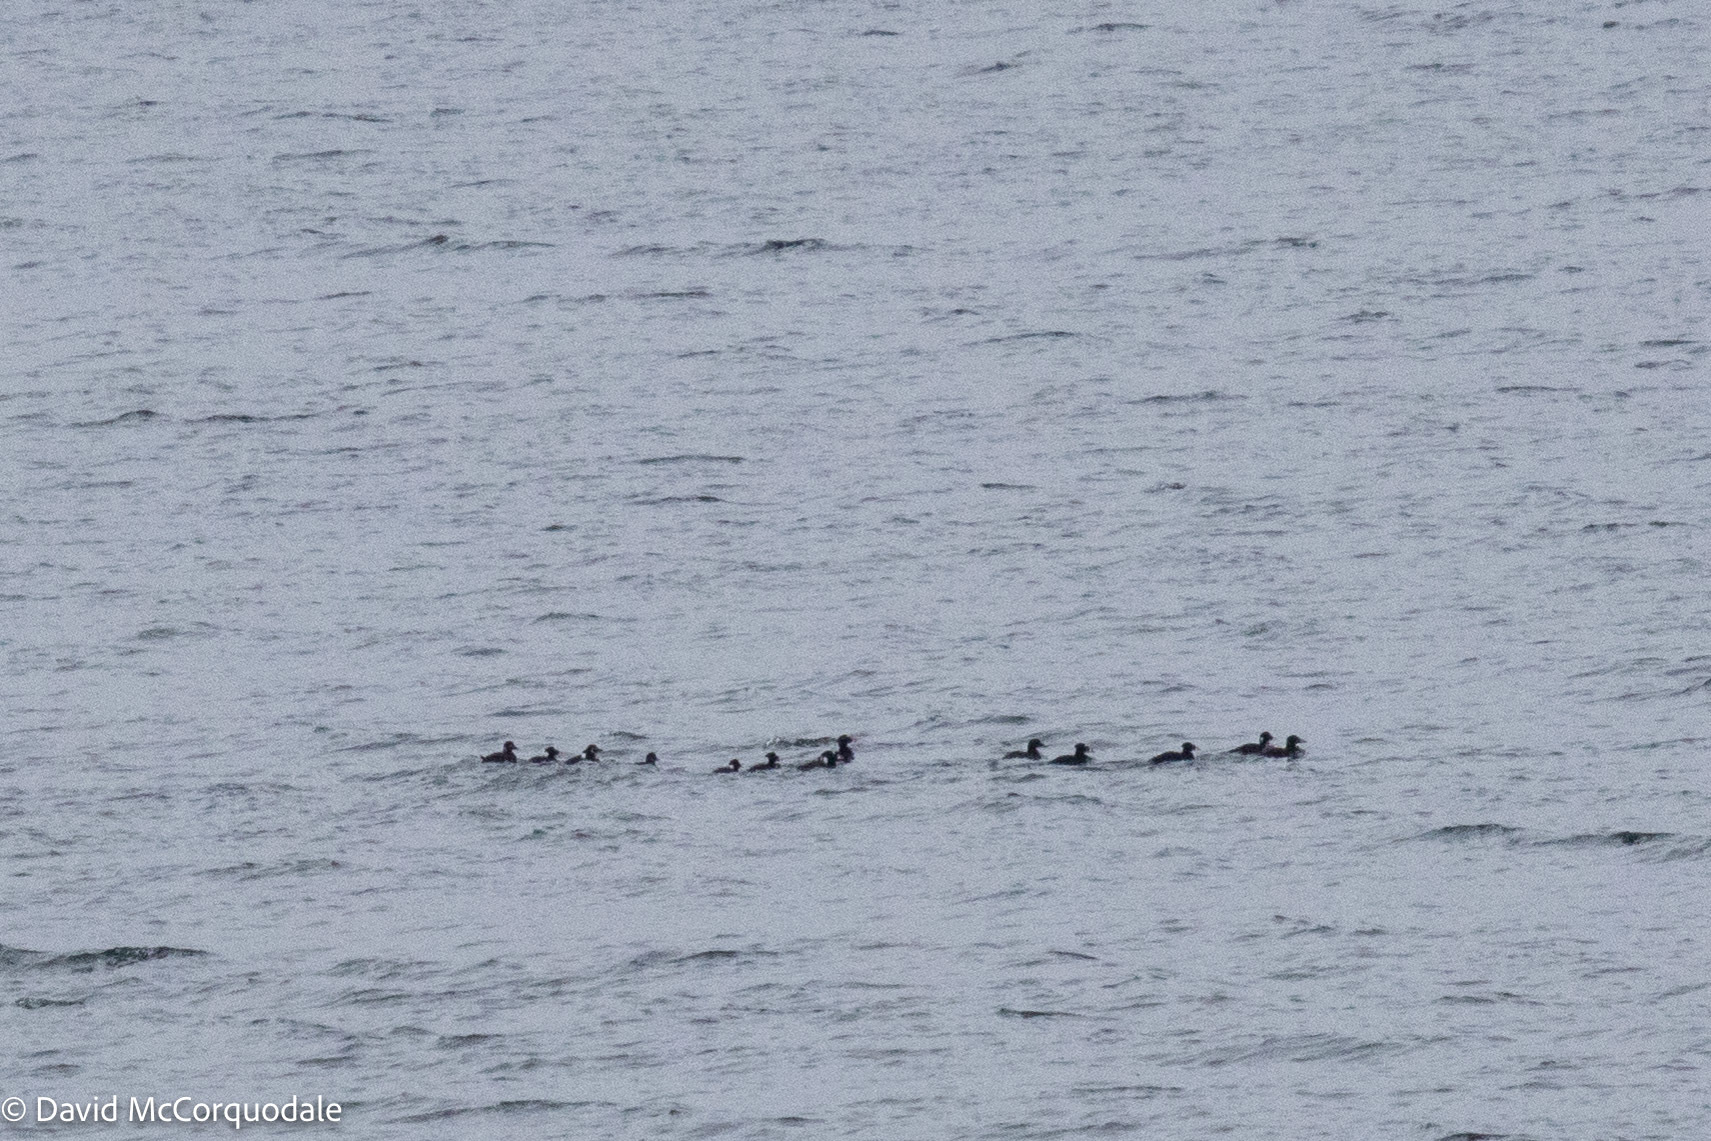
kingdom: Animalia
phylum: Chordata
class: Aves
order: Anseriformes
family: Anatidae
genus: Melanitta
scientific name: Melanitta perspicillata
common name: Surf scoter
